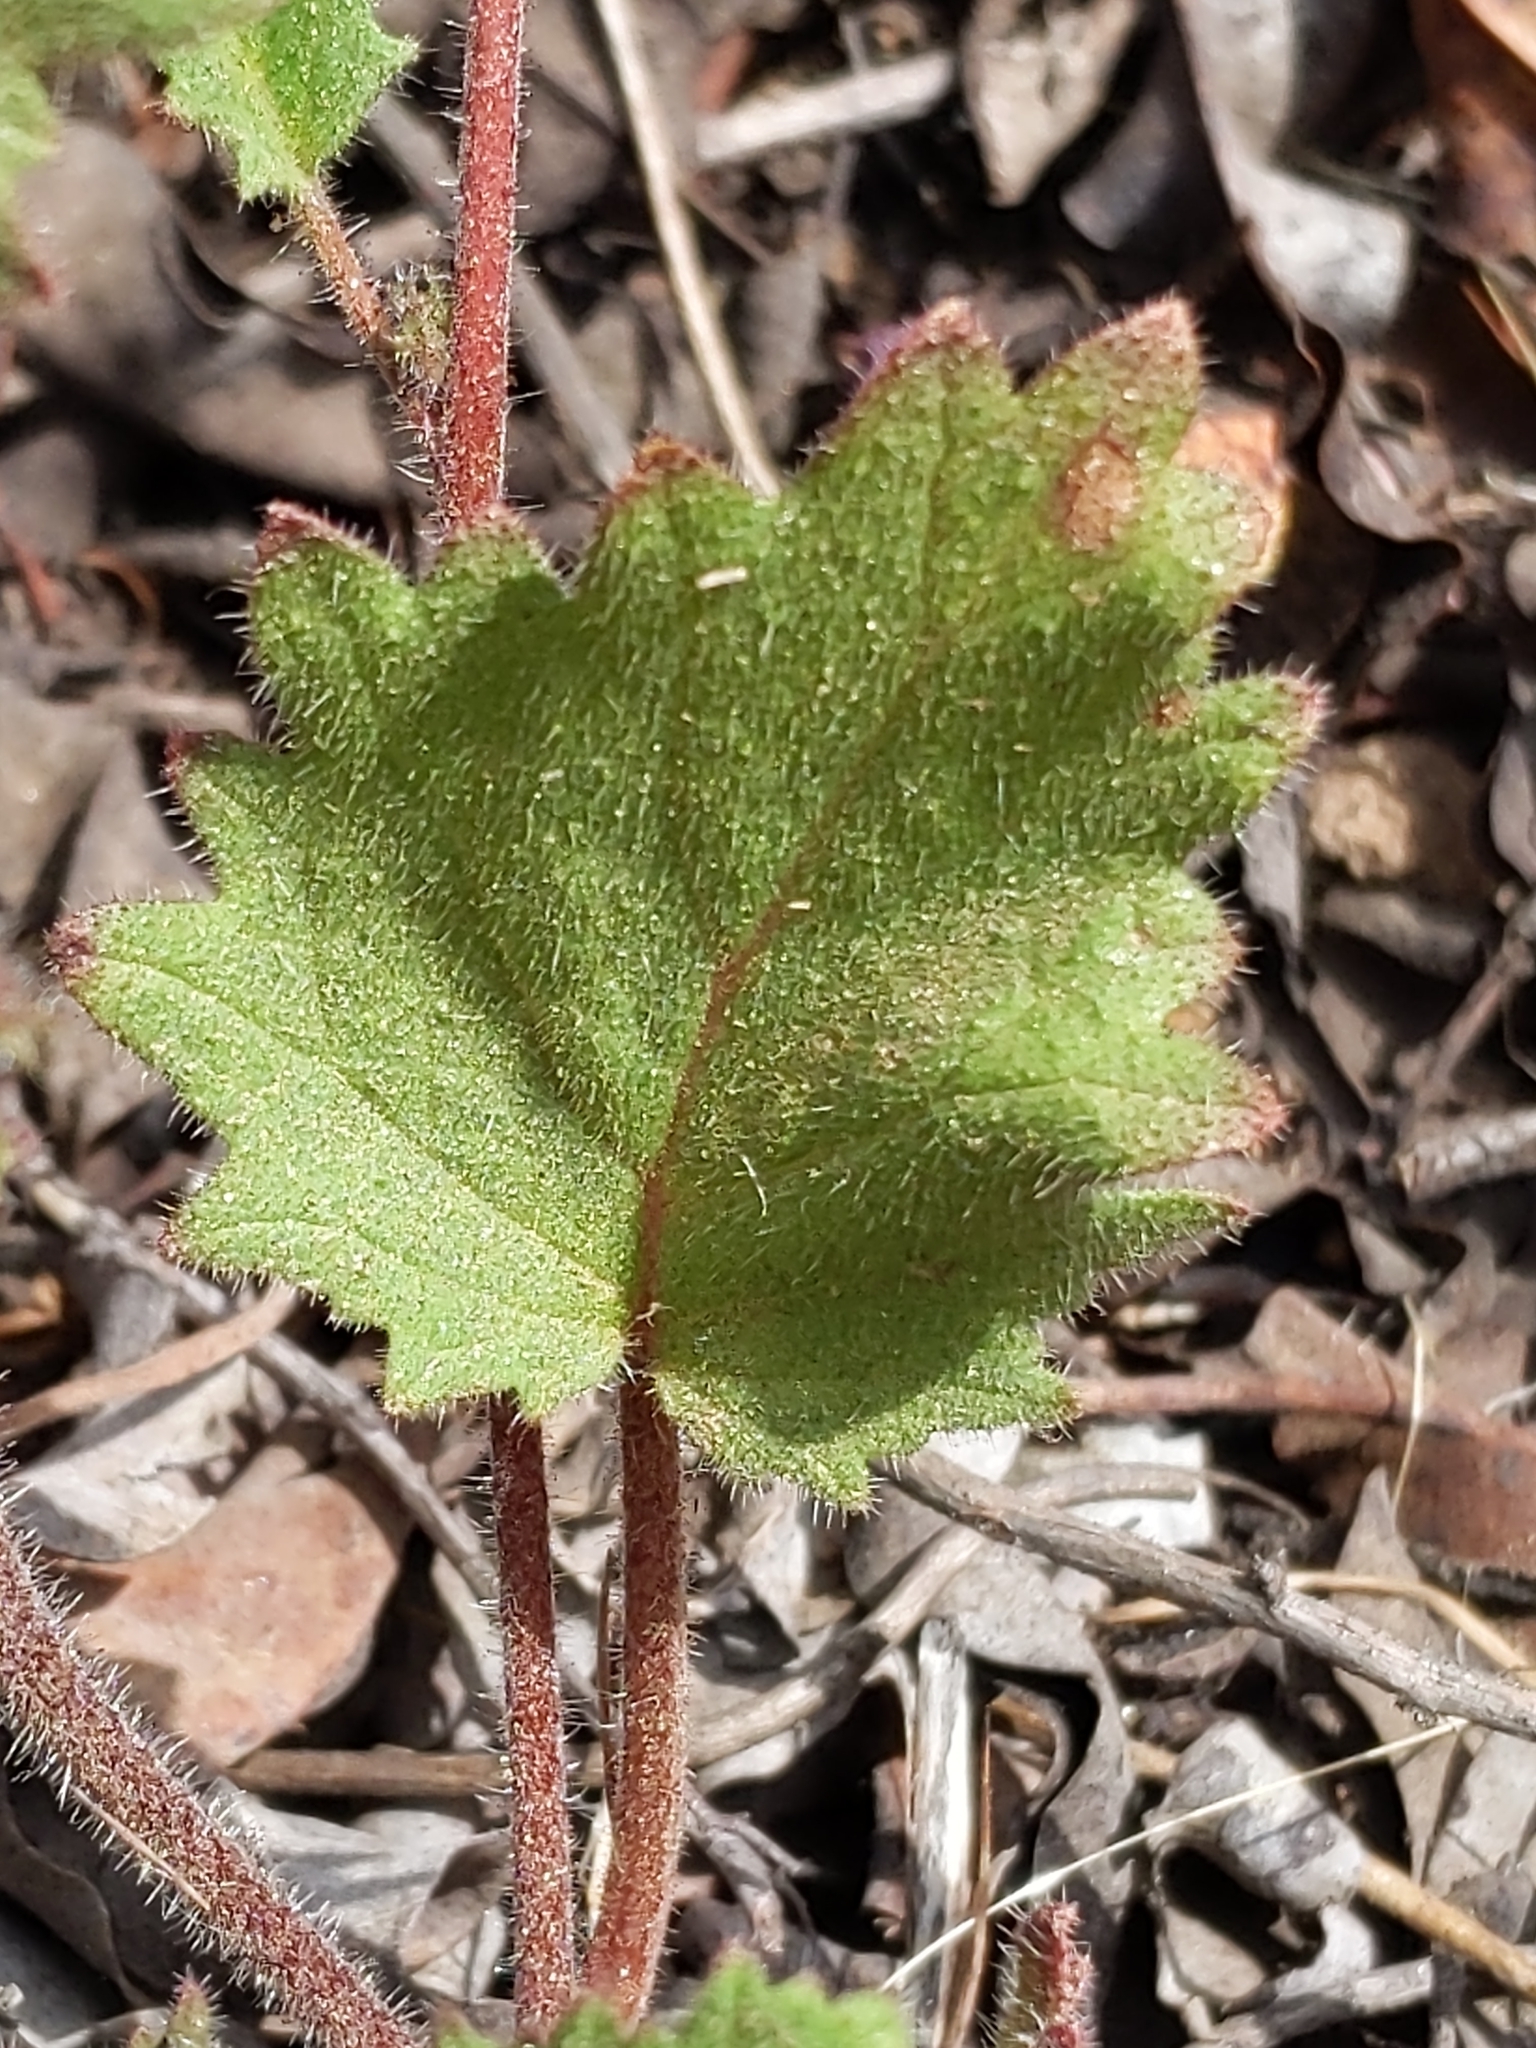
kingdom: Plantae
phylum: Tracheophyta
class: Magnoliopsida
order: Boraginales
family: Hydrophyllaceae
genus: Phacelia
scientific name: Phacelia parryi
